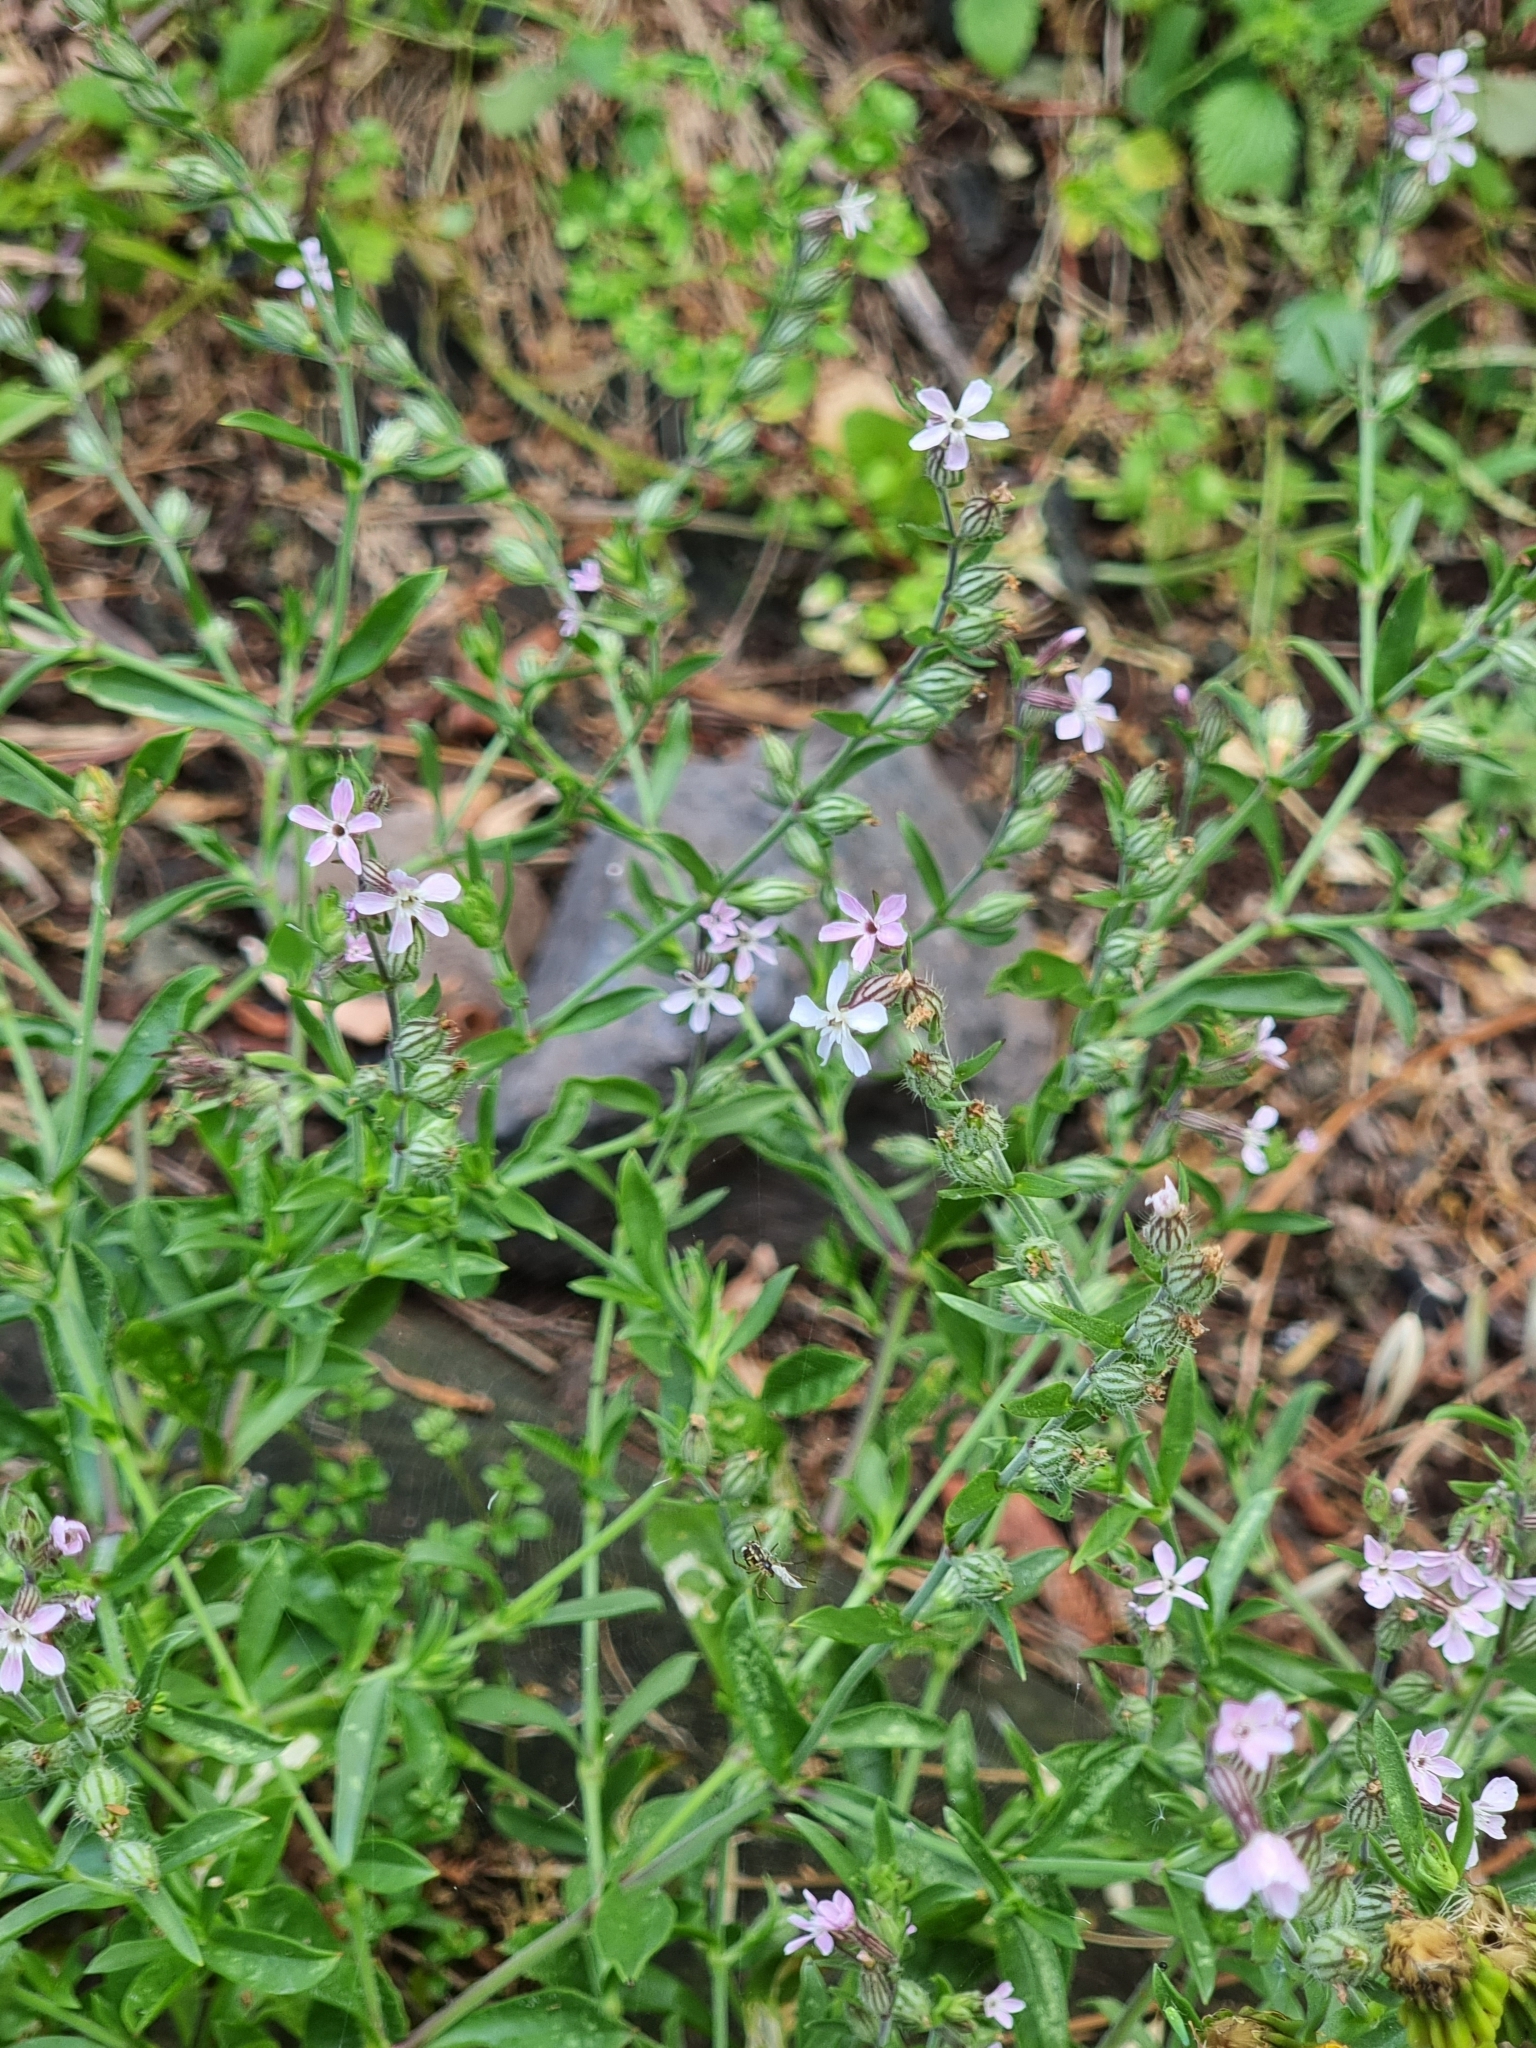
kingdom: Plantae
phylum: Tracheophyta
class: Magnoliopsida
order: Caryophyllales
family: Caryophyllaceae
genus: Silene
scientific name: Silene gallica
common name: Small-flowered catchfly
